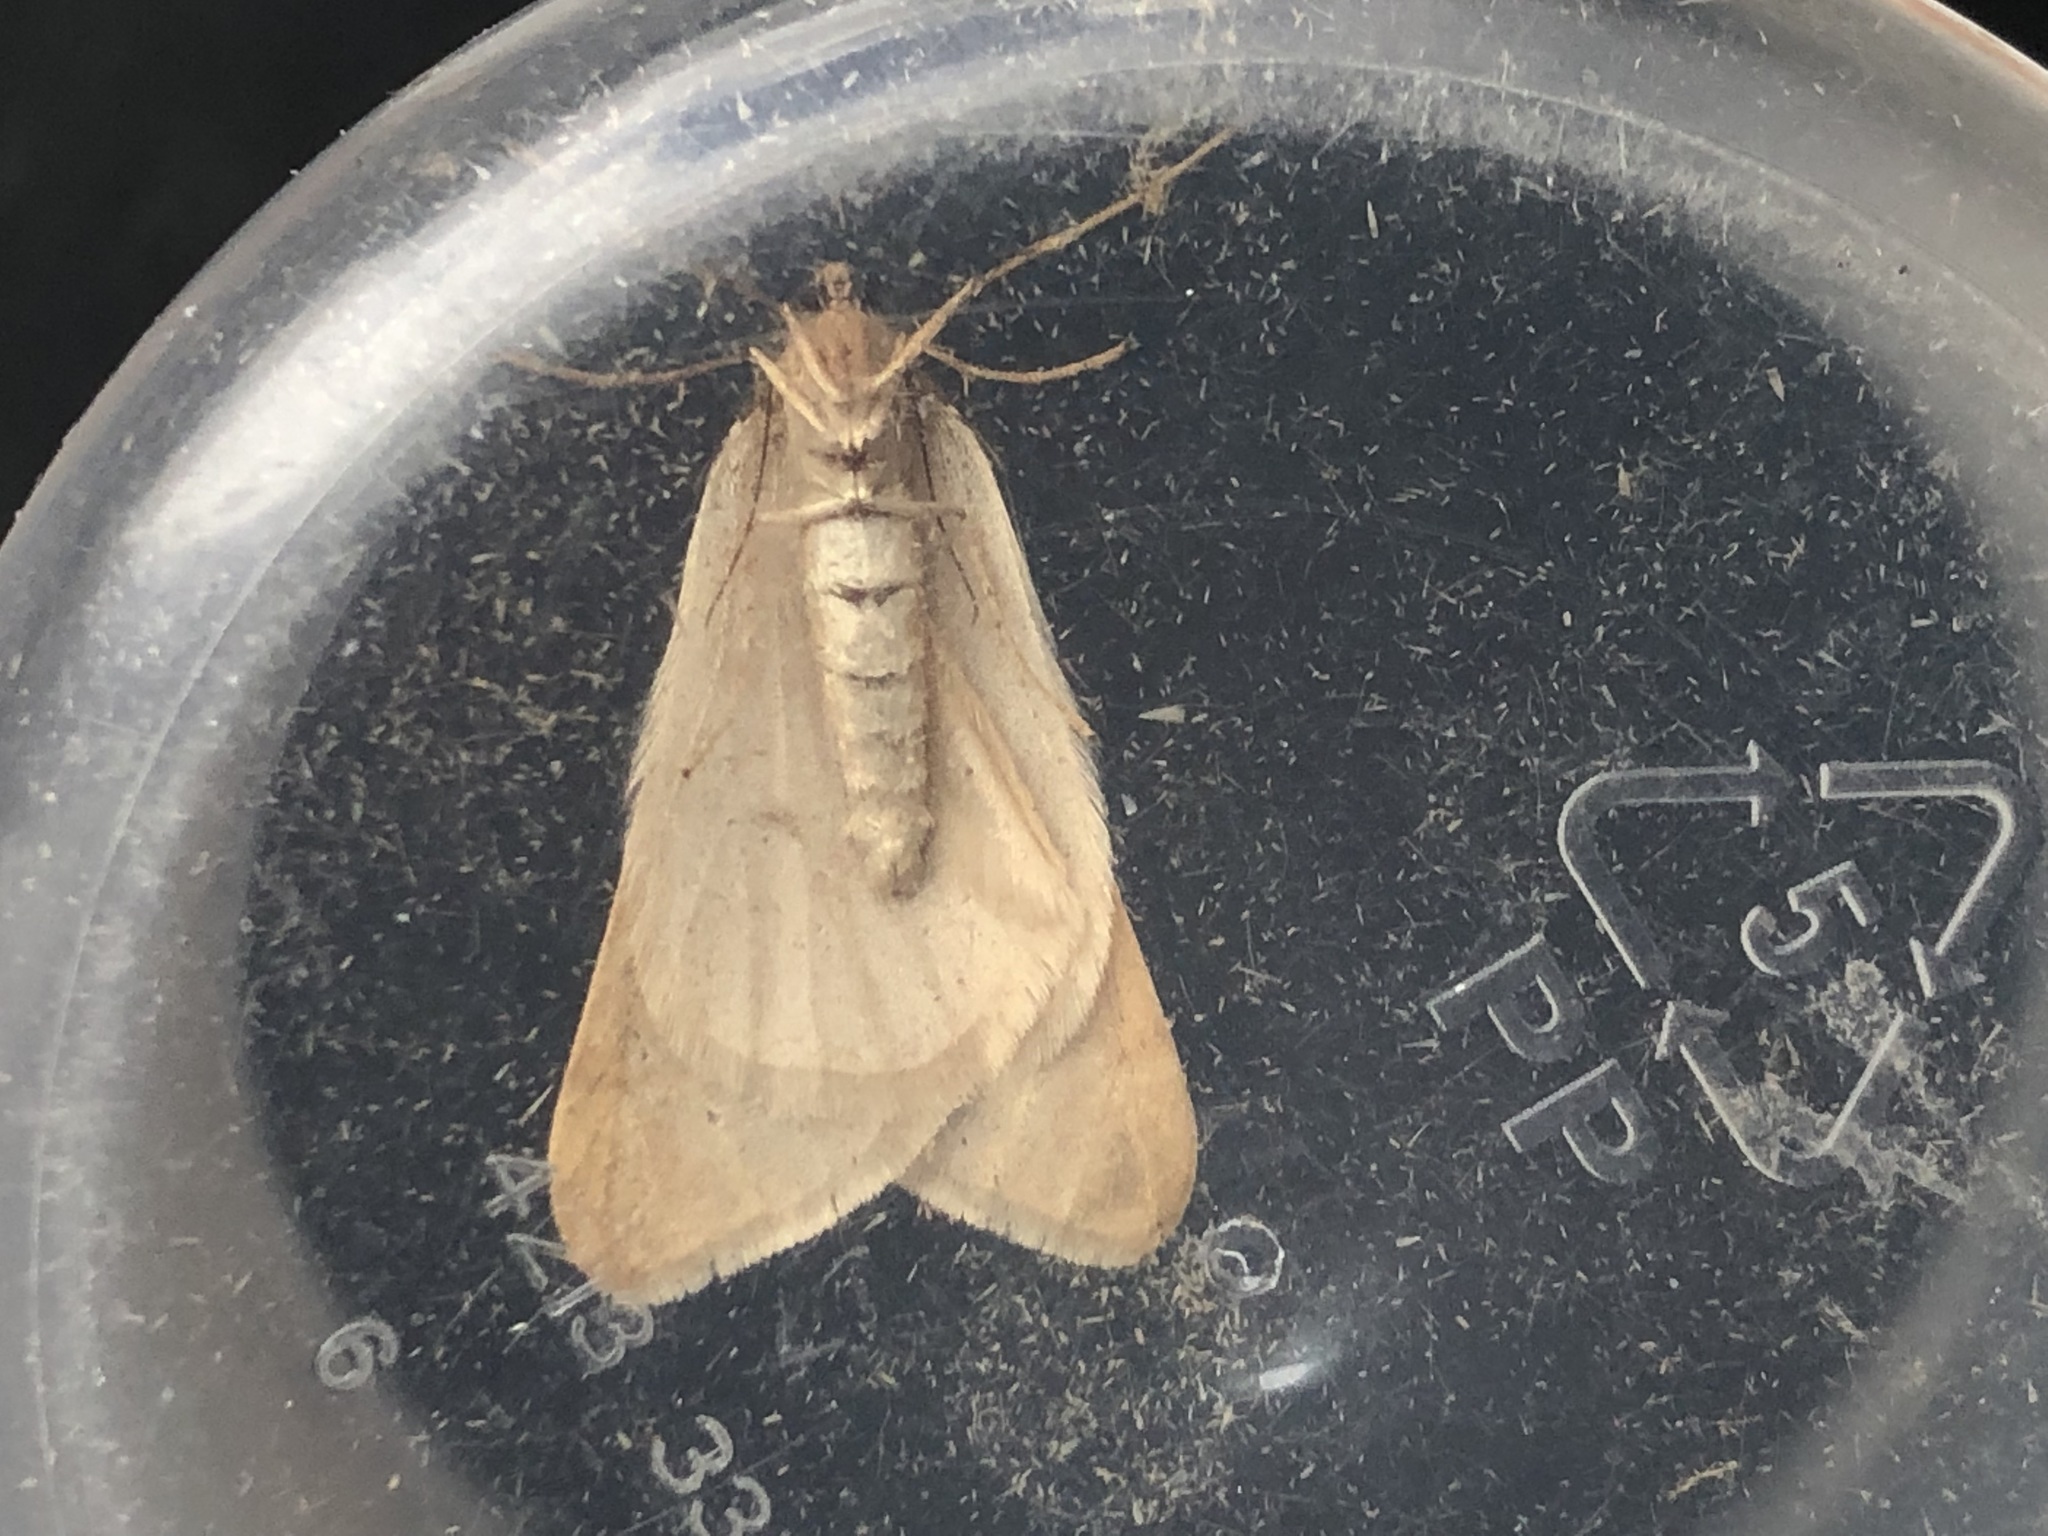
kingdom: Animalia
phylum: Arthropoda
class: Insecta
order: Lepidoptera
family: Geometridae
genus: Alsophila
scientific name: Alsophila aceraria
